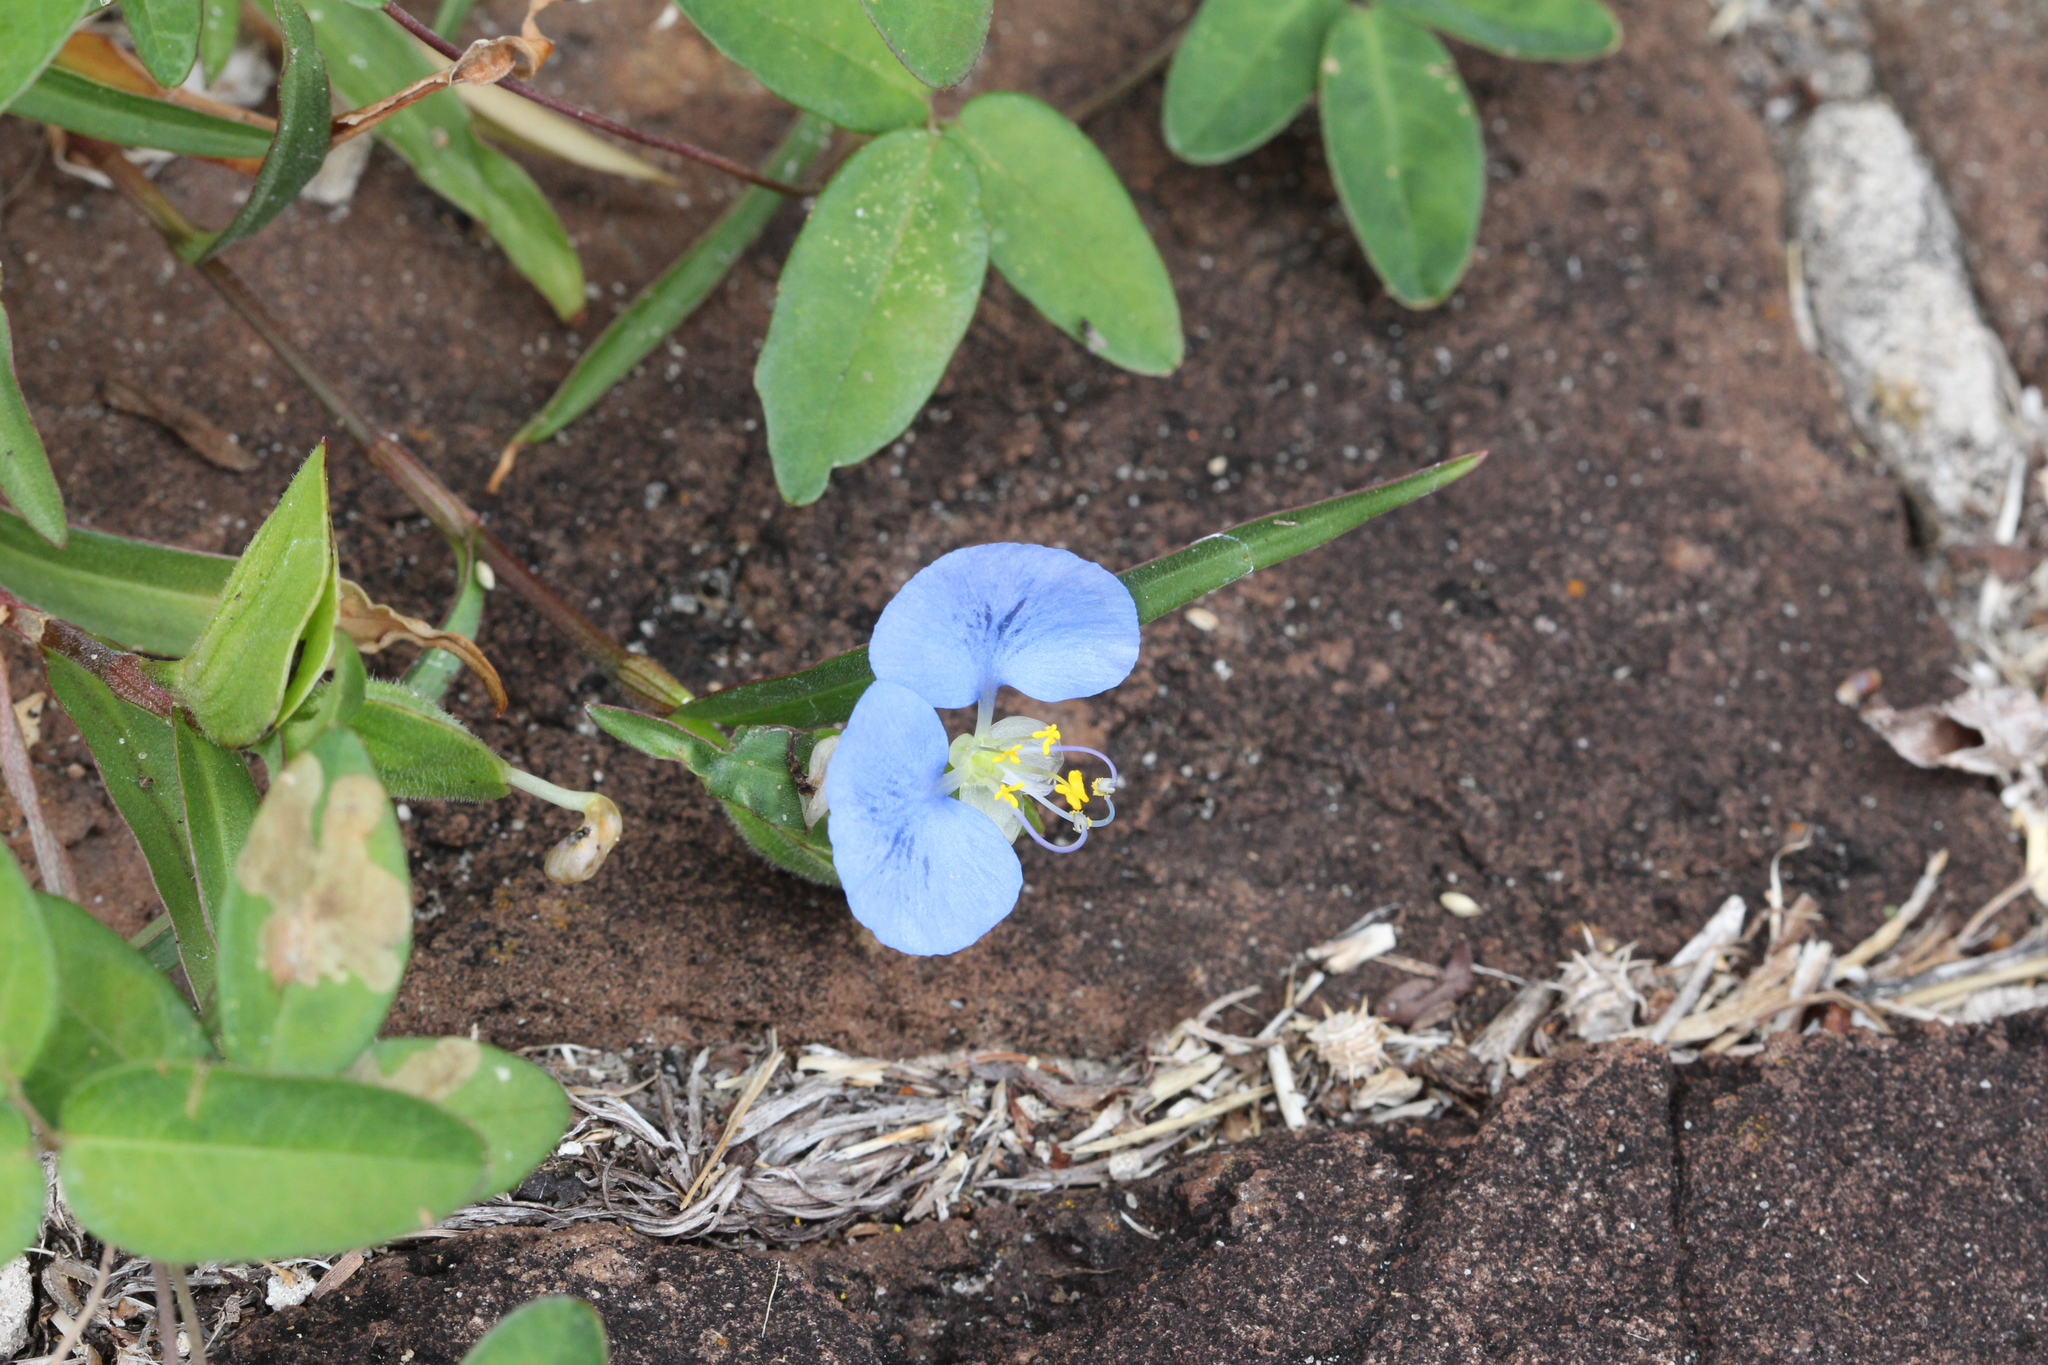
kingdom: Plantae
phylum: Tracheophyta
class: Liliopsida
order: Commelinales
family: Commelinaceae
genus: Commelina
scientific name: Commelina erecta
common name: Blousel blommetjie
